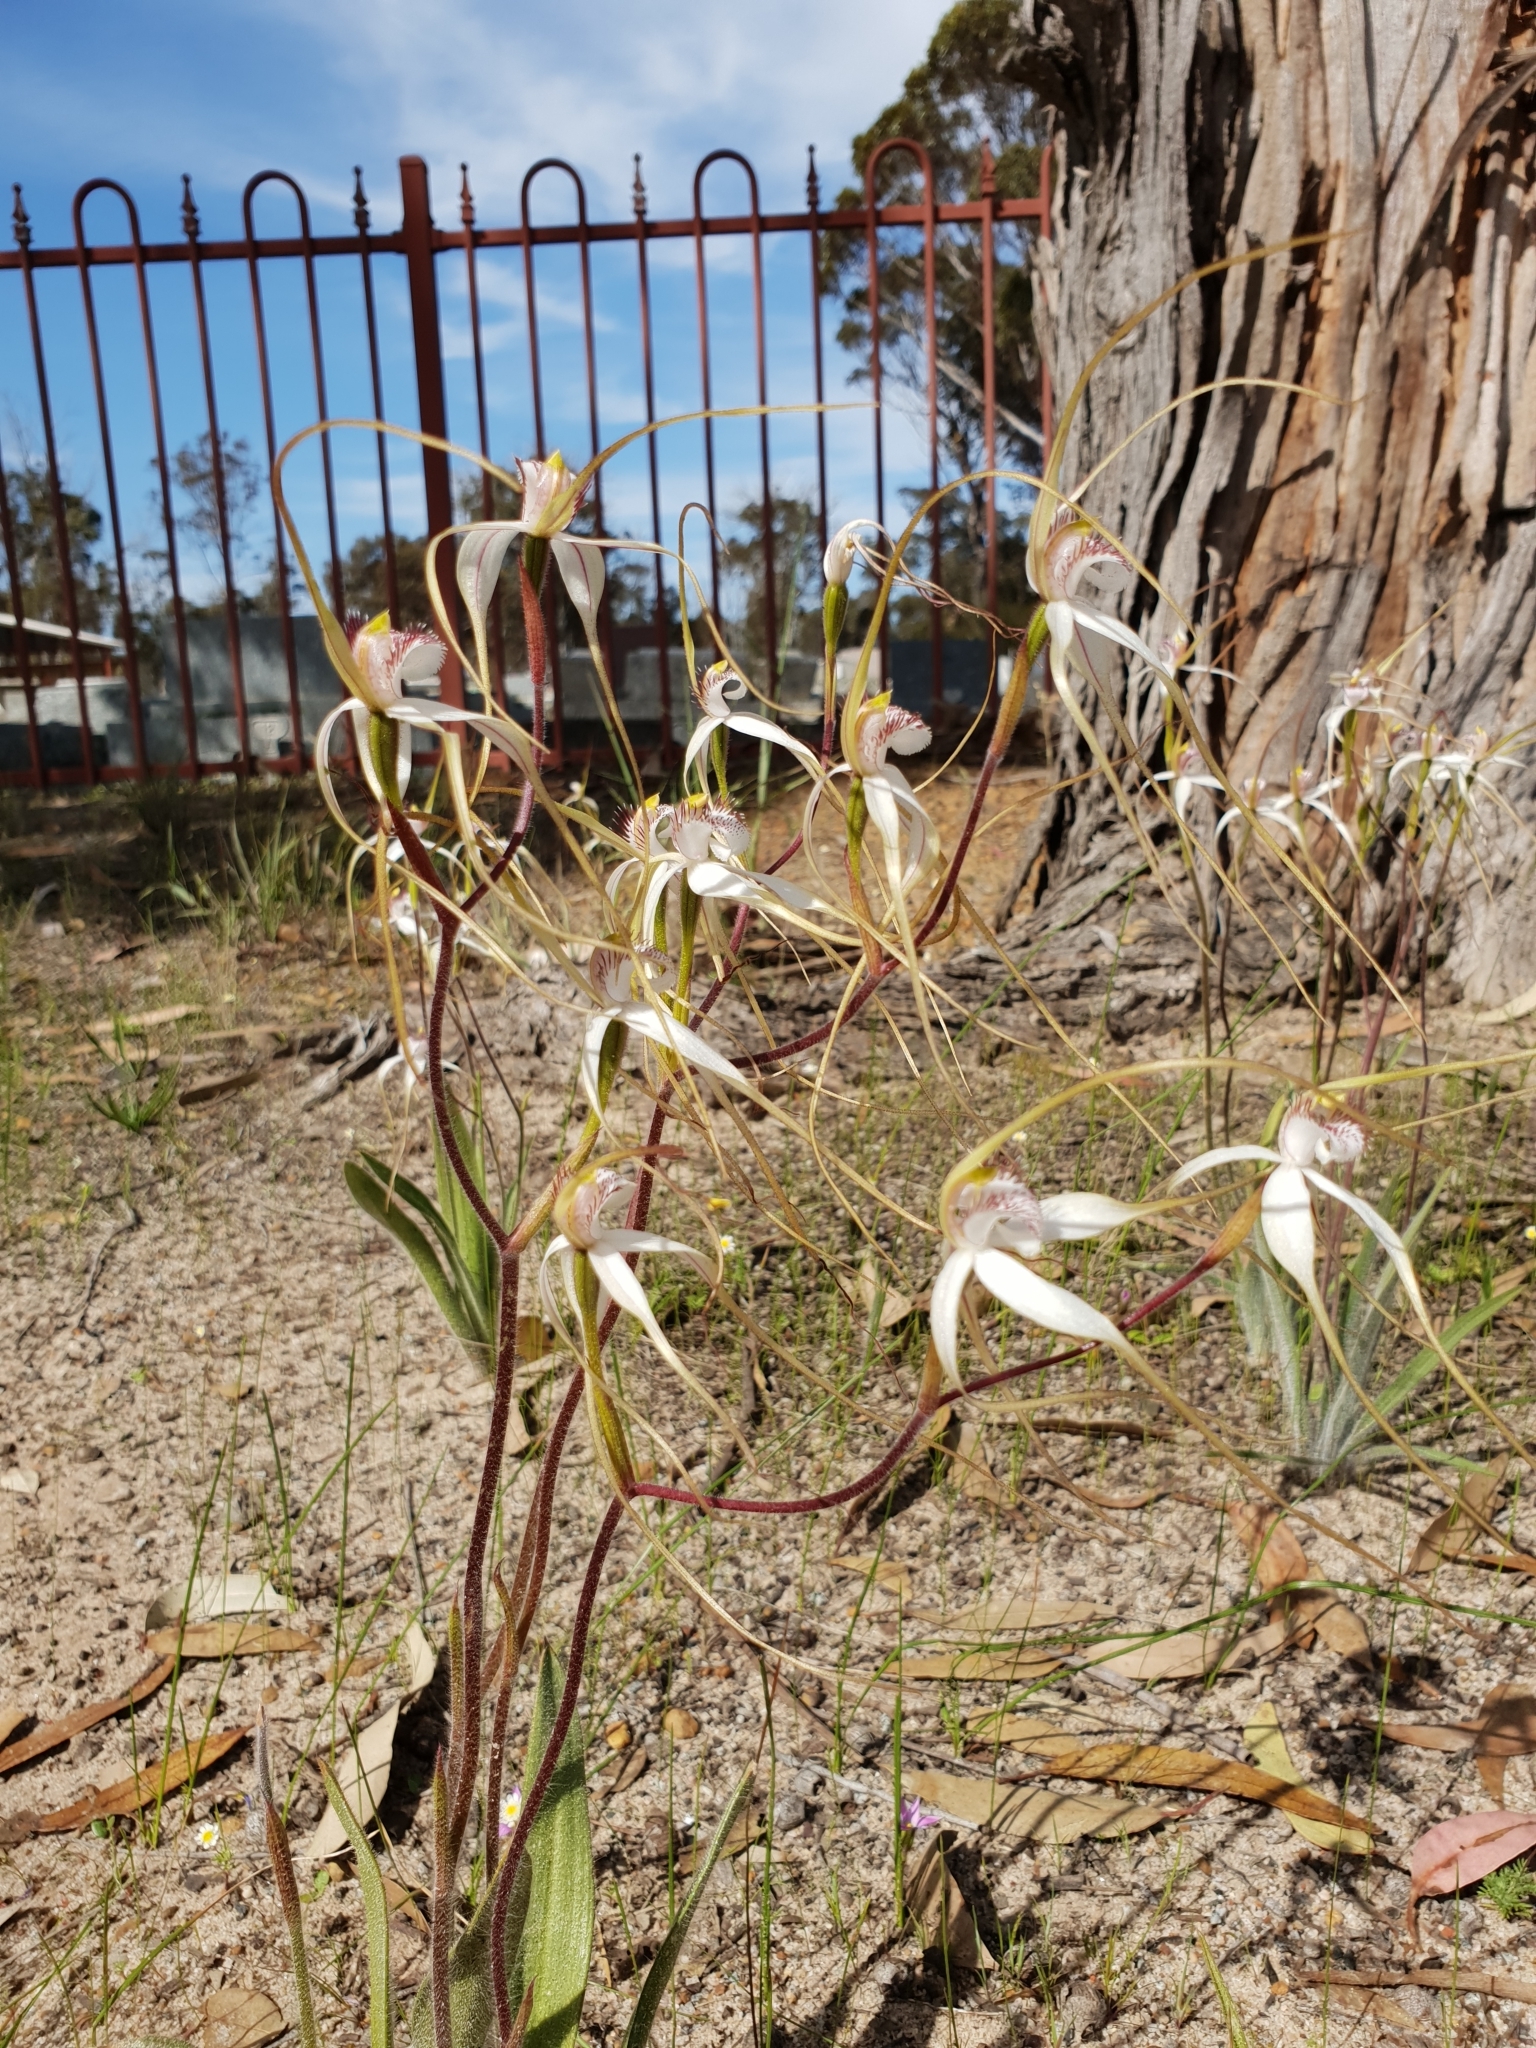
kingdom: Plantae
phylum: Tracheophyta
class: Liliopsida
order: Asparagales
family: Orchidaceae
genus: Caladenia
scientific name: Caladenia longicauda
